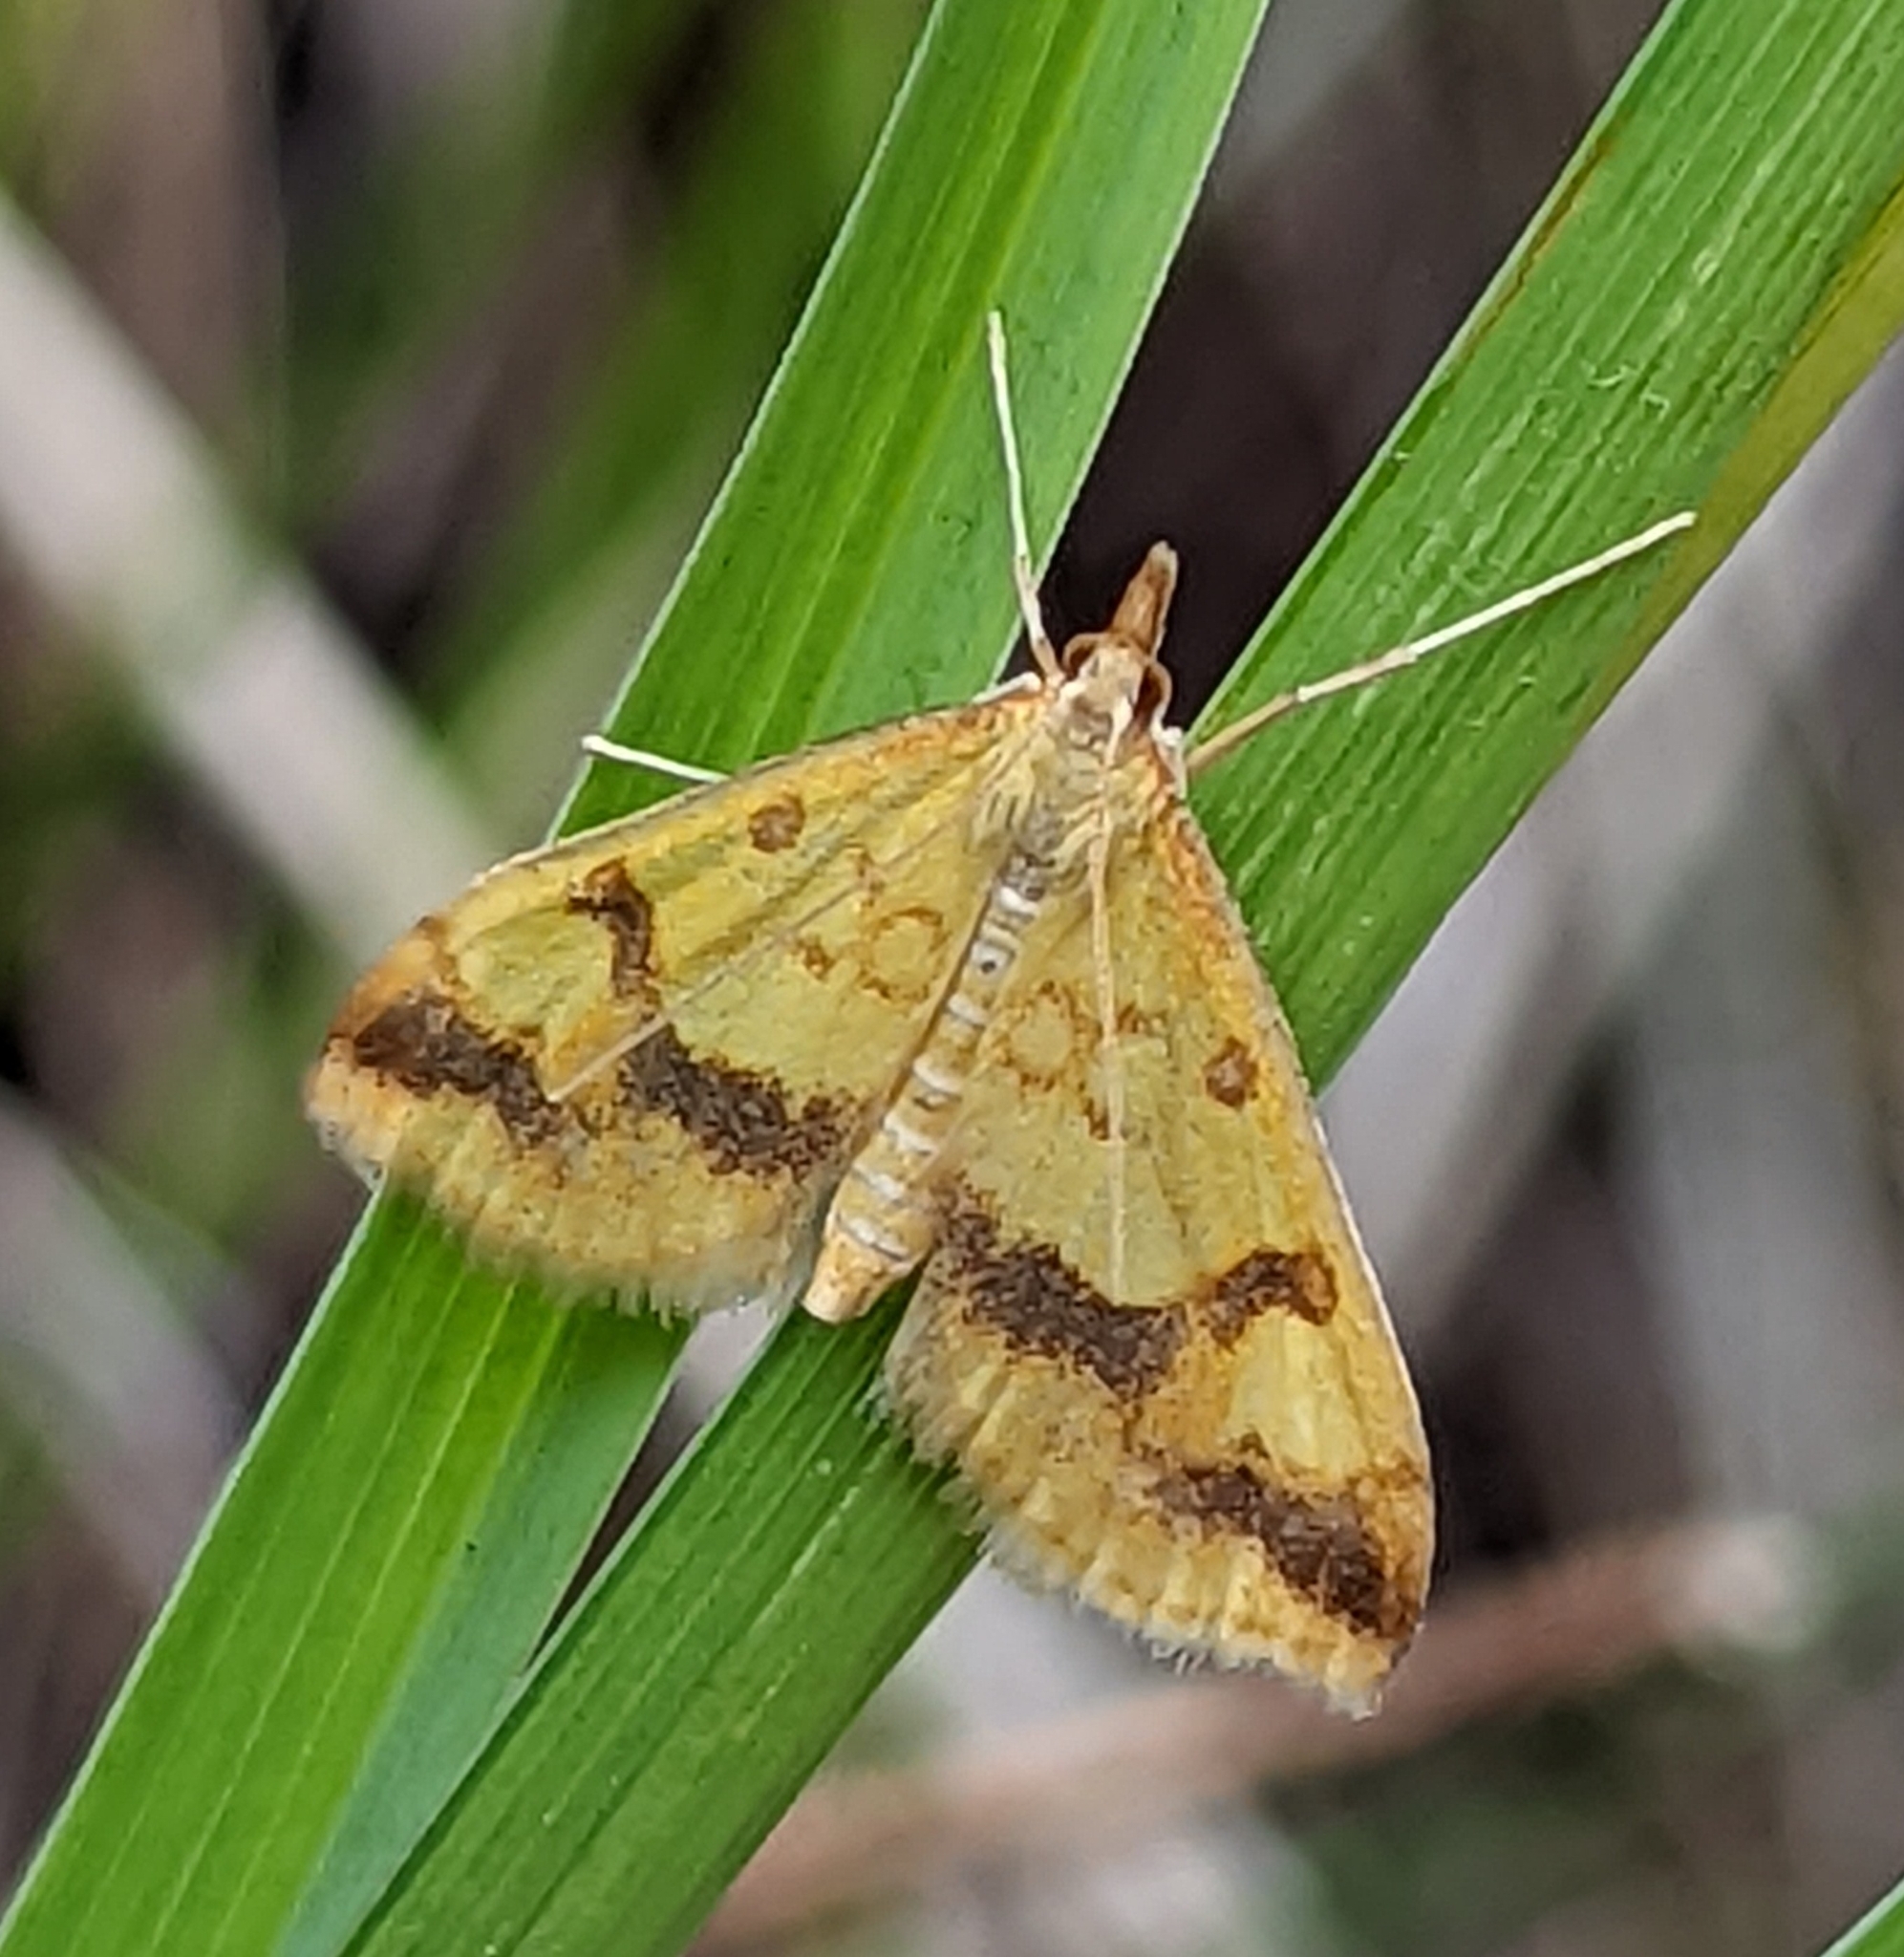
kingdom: Animalia
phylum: Arthropoda
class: Insecta
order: Lepidoptera
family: Crambidae
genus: Choristostigma
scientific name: Choristostigma plumbosignalis
